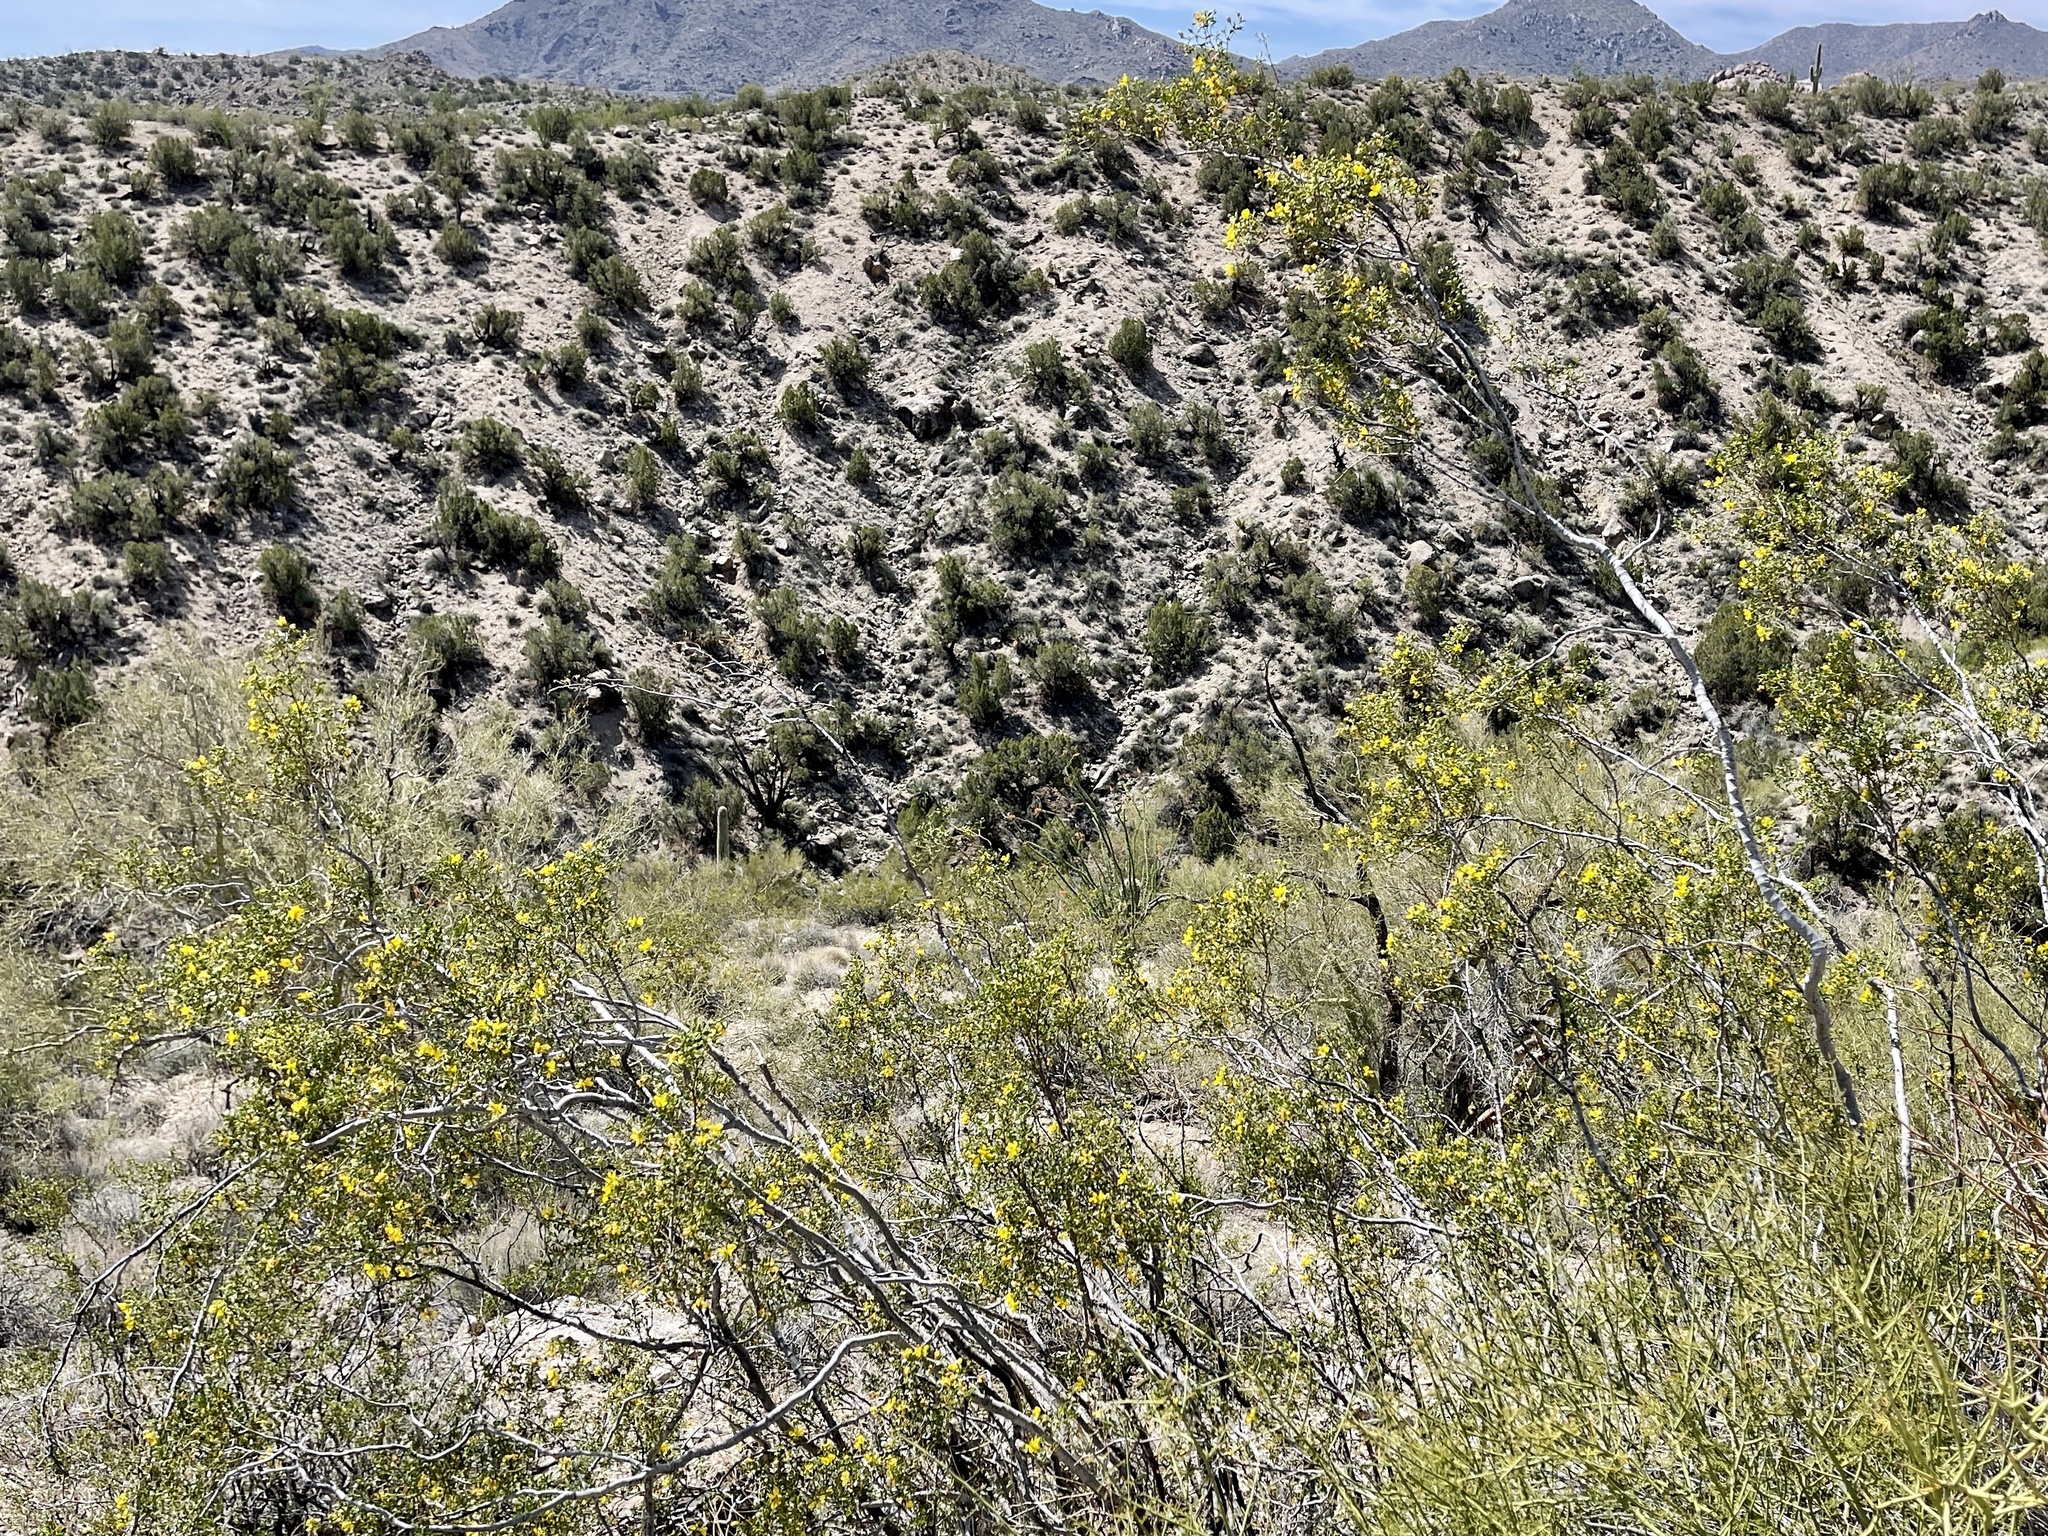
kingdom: Plantae
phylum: Tracheophyta
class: Magnoliopsida
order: Zygophyllales
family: Zygophyllaceae
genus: Larrea
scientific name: Larrea tridentata
